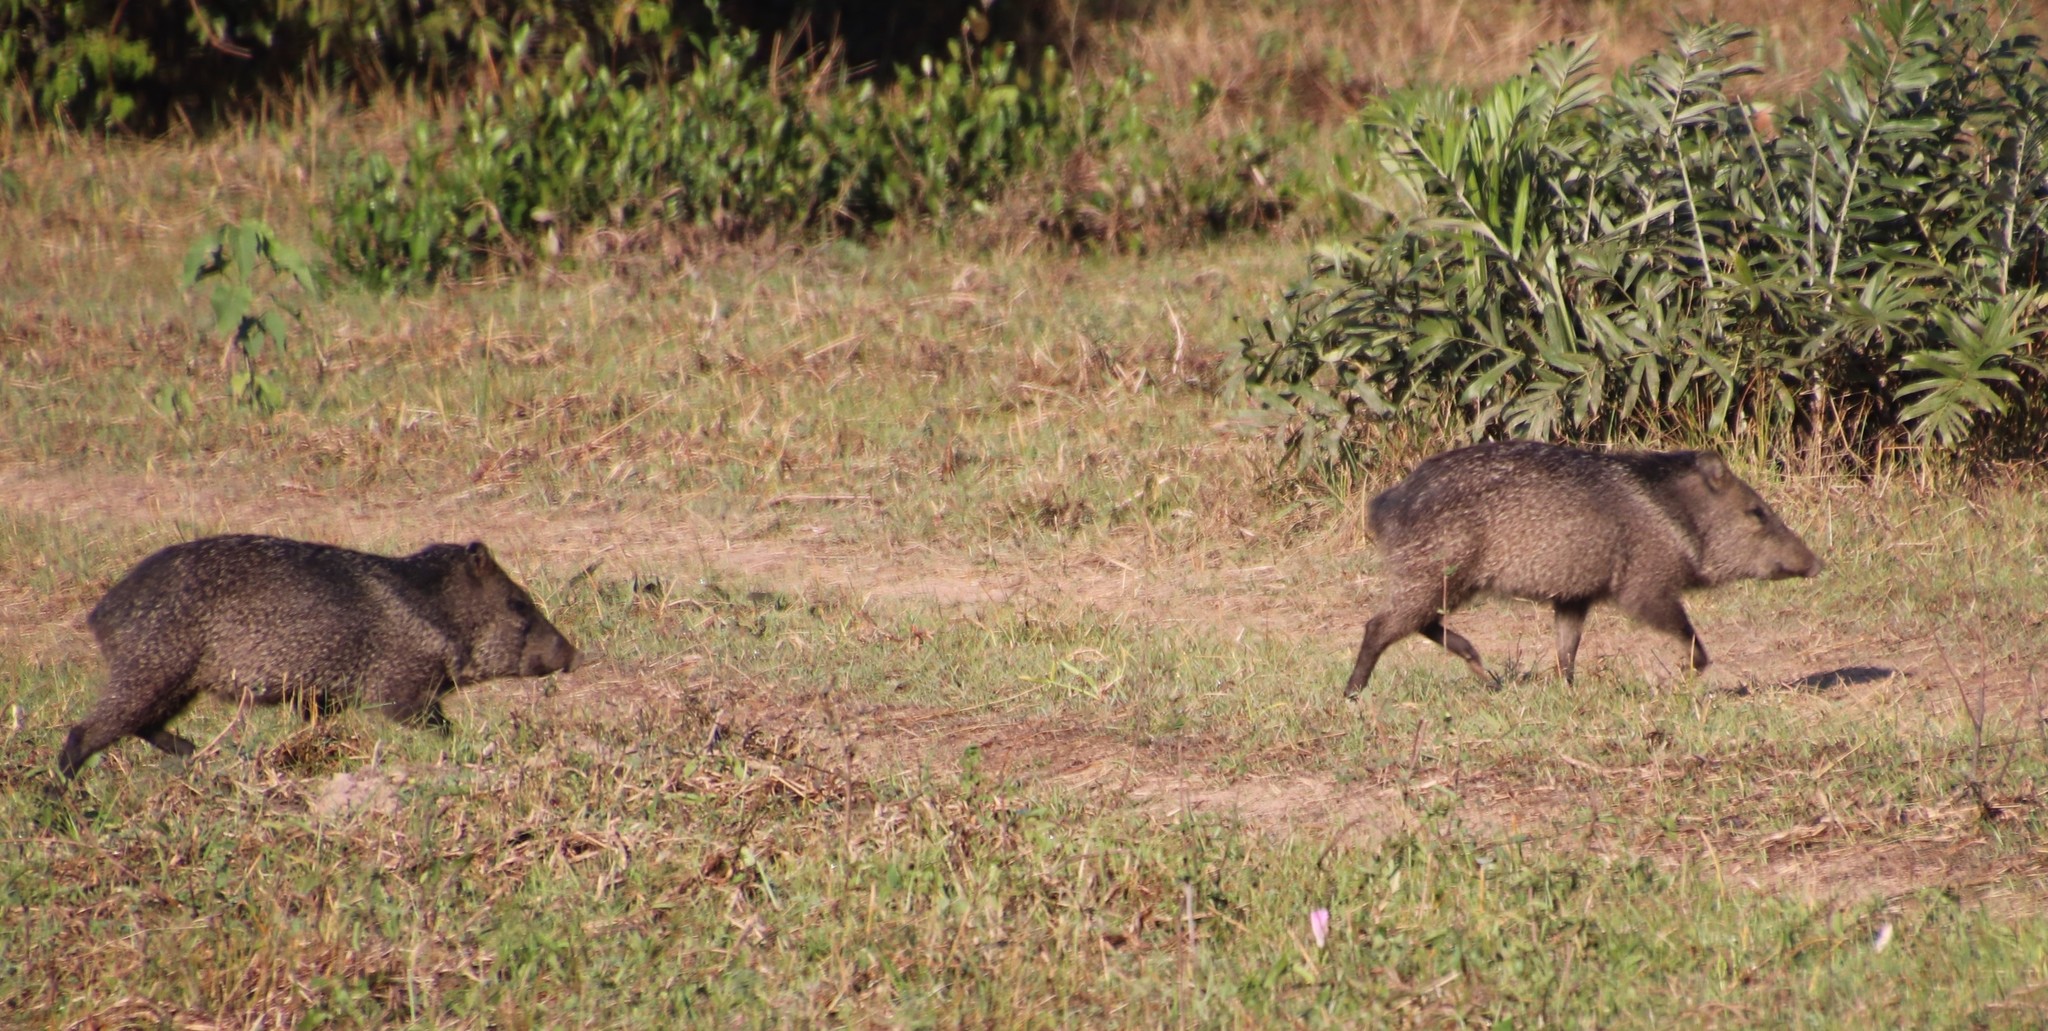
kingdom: Animalia
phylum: Chordata
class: Mammalia
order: Artiodactyla
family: Tayassuidae
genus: Pecari
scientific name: Pecari tajacu
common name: Collared peccary
